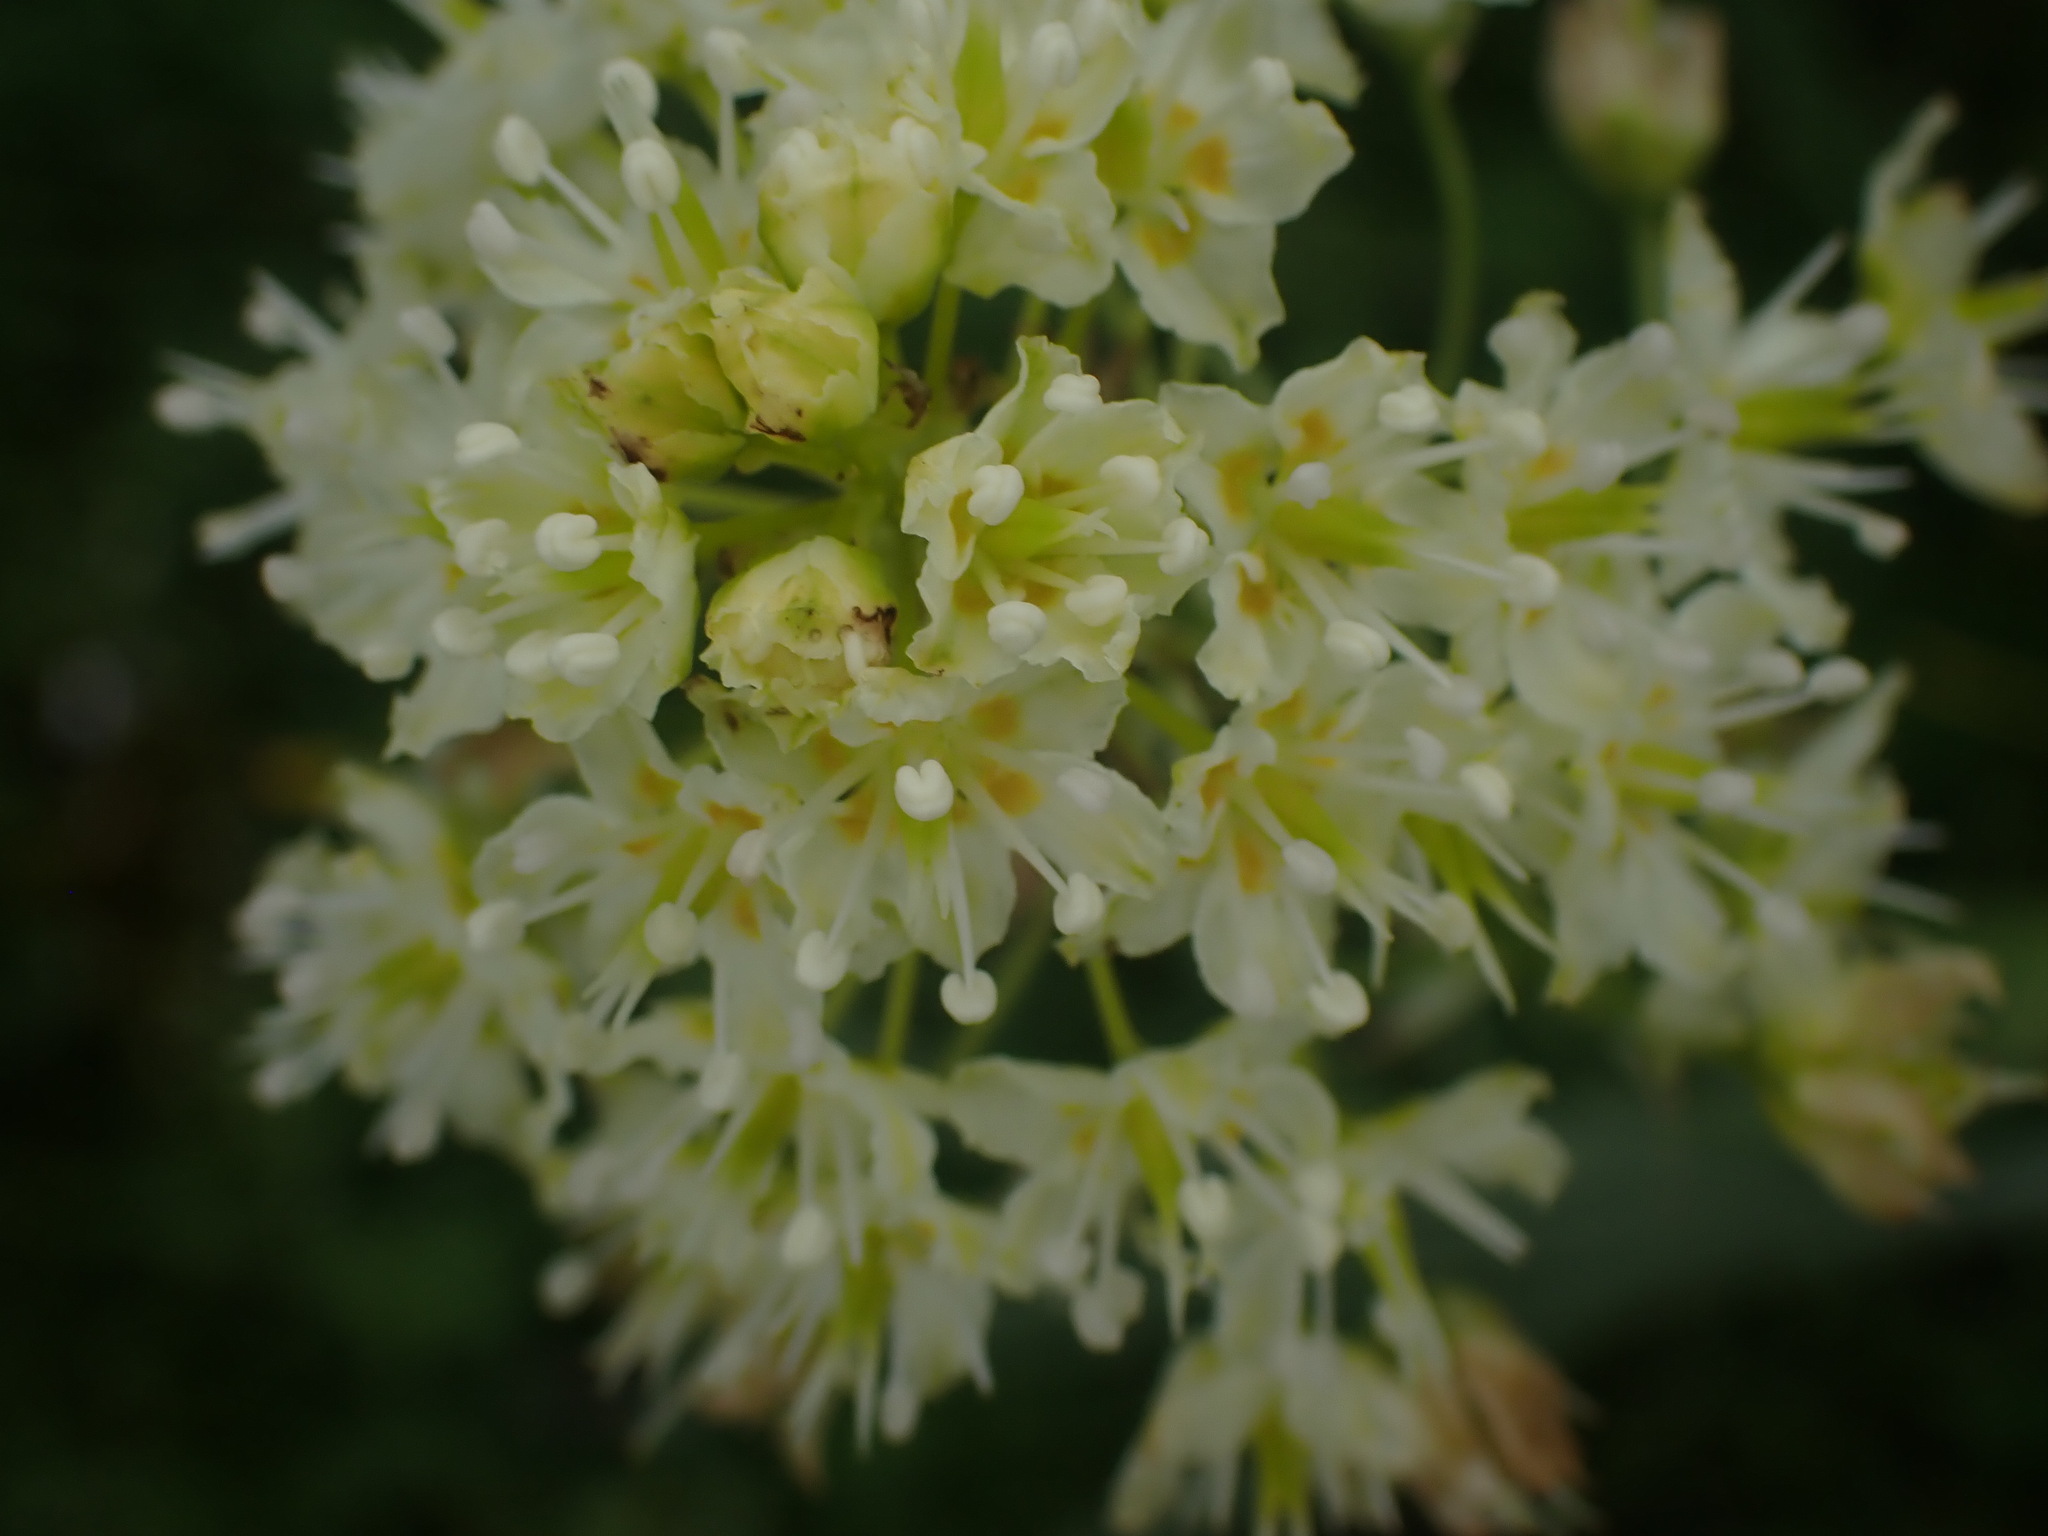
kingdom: Plantae
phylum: Tracheophyta
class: Liliopsida
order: Liliales
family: Melanthiaceae
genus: Toxicoscordion
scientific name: Toxicoscordion venenosum
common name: Meadow death camas
